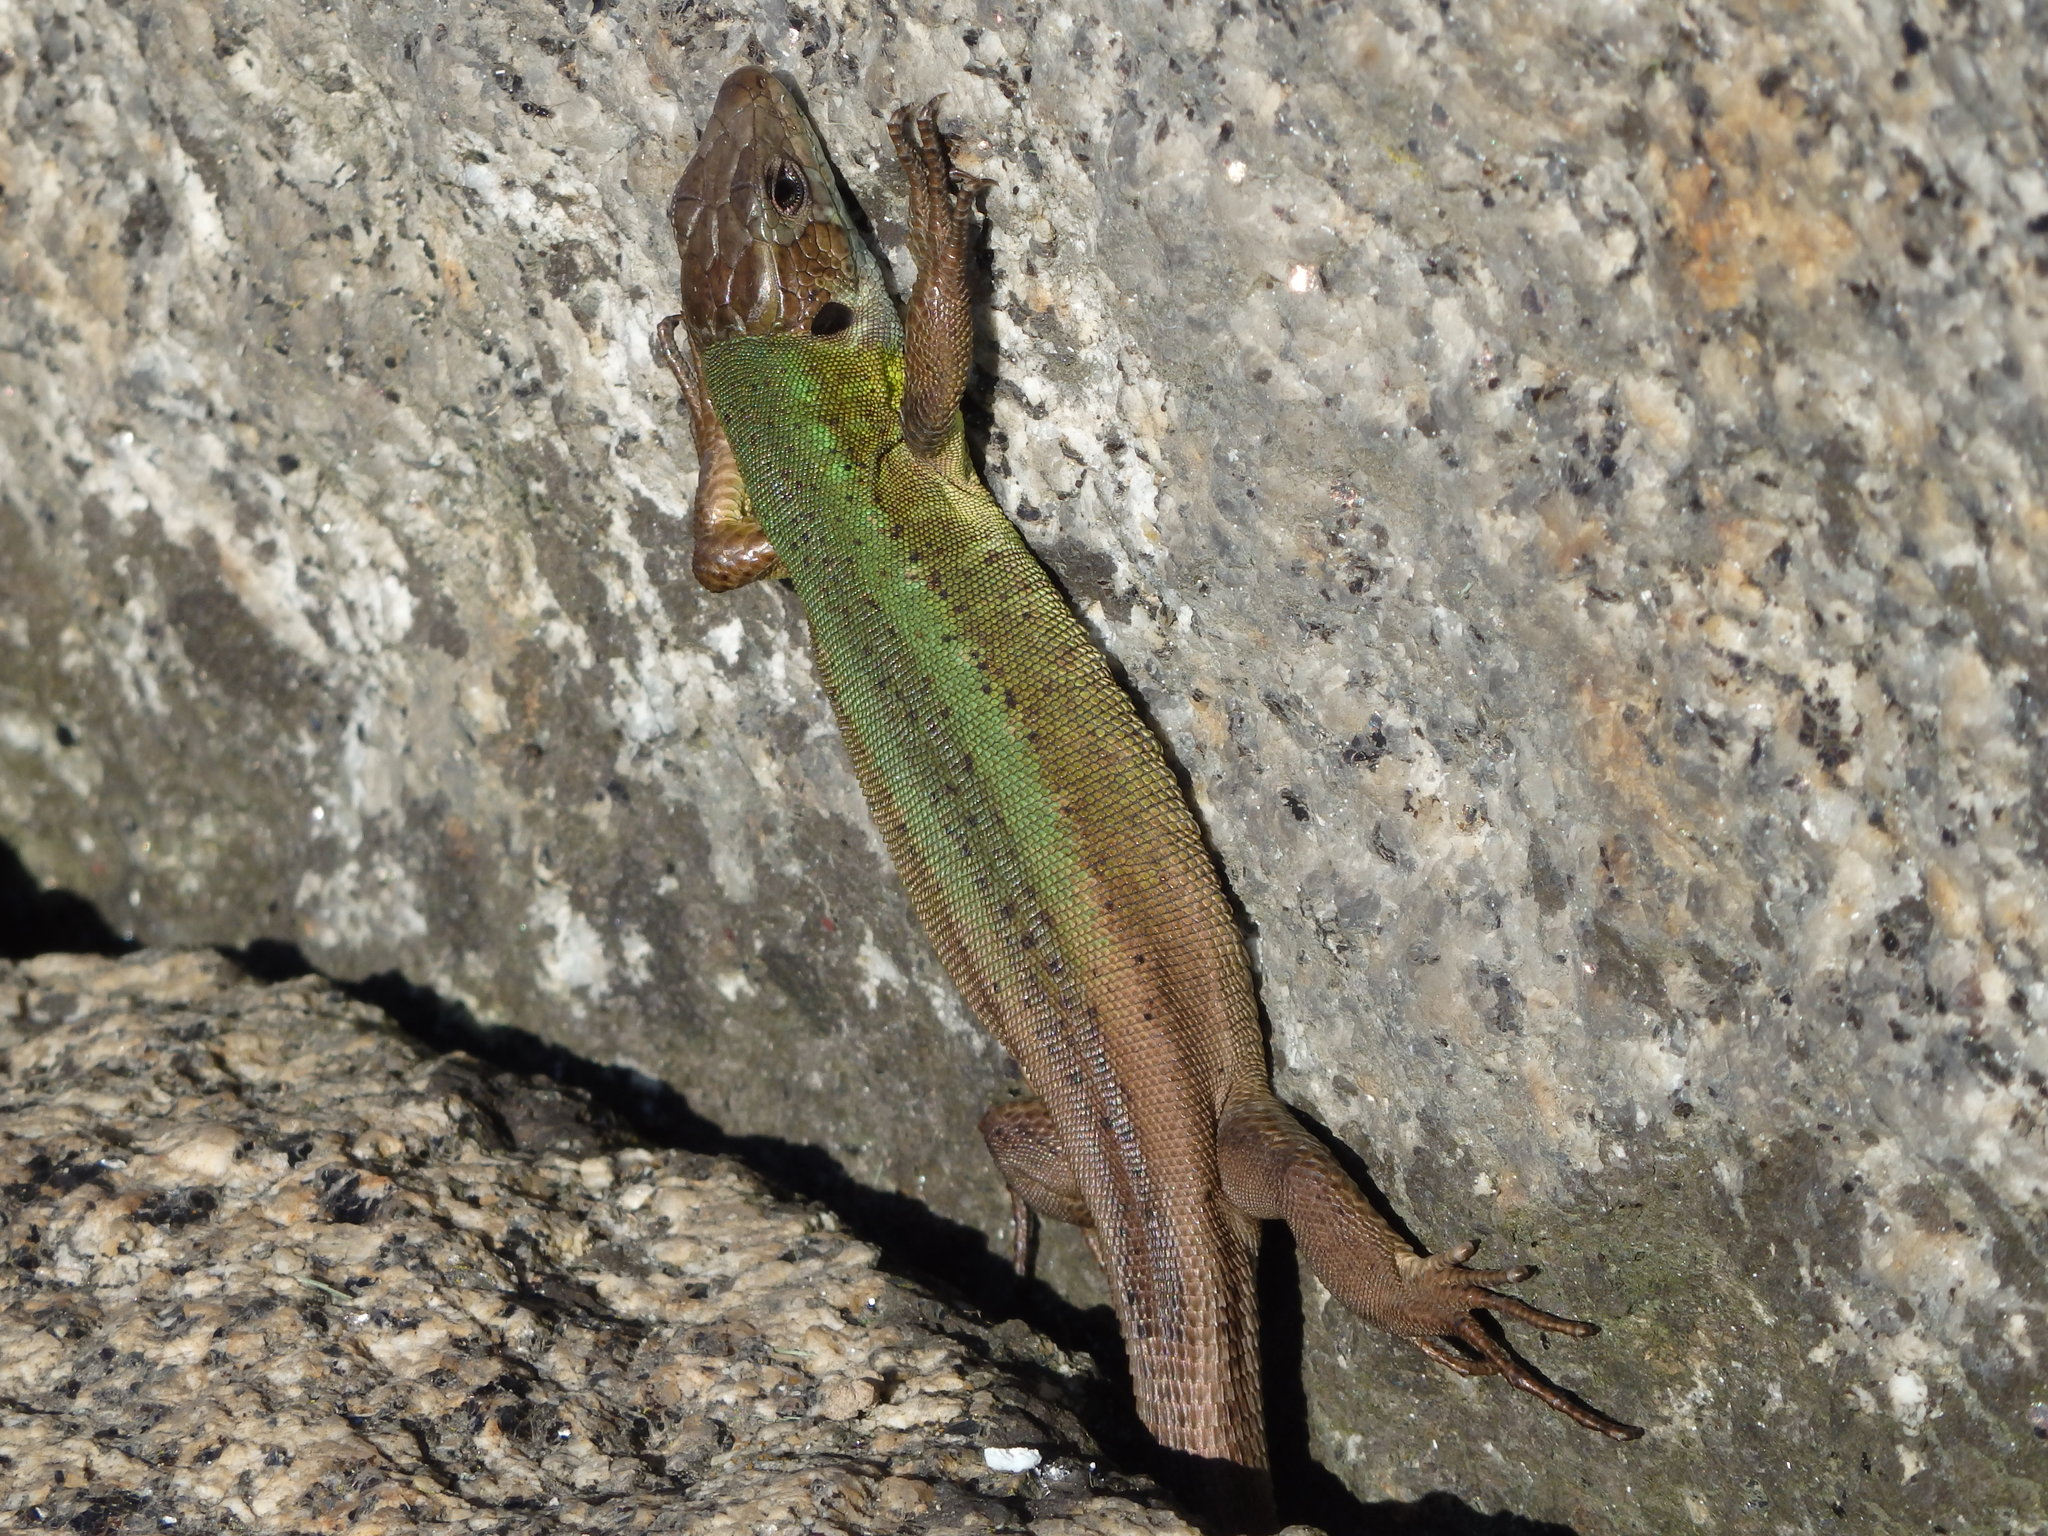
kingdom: Animalia
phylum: Chordata
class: Squamata
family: Lacertidae
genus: Lacerta
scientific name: Lacerta schreiberi
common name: Iberian emerald lizard
